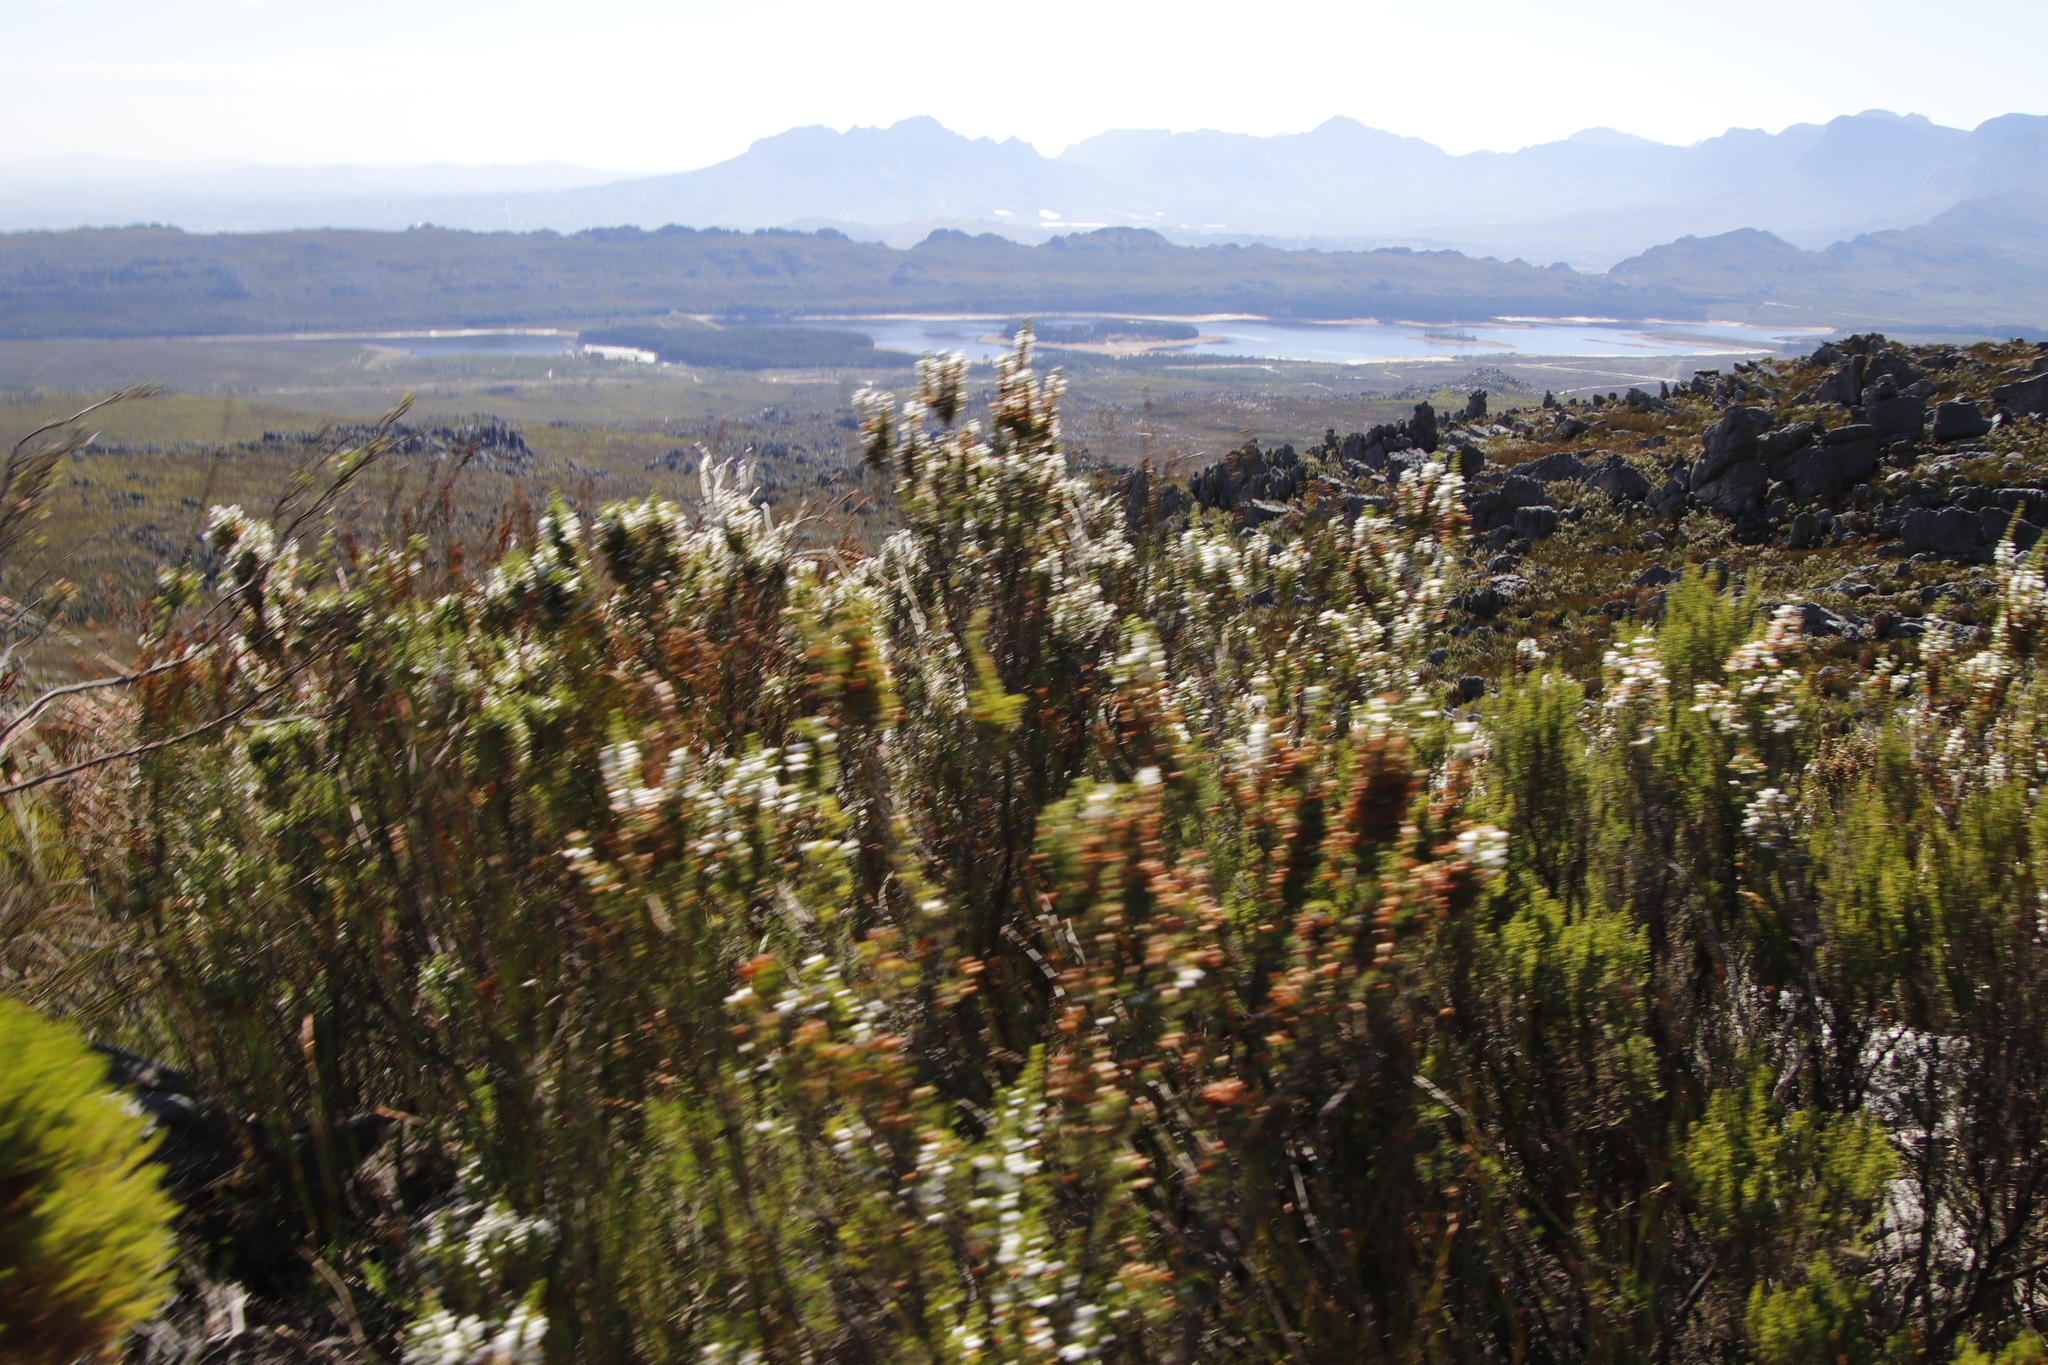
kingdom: Plantae
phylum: Tracheophyta
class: Magnoliopsida
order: Ericales
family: Ericaceae
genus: Erica
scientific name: Erica sitiens
